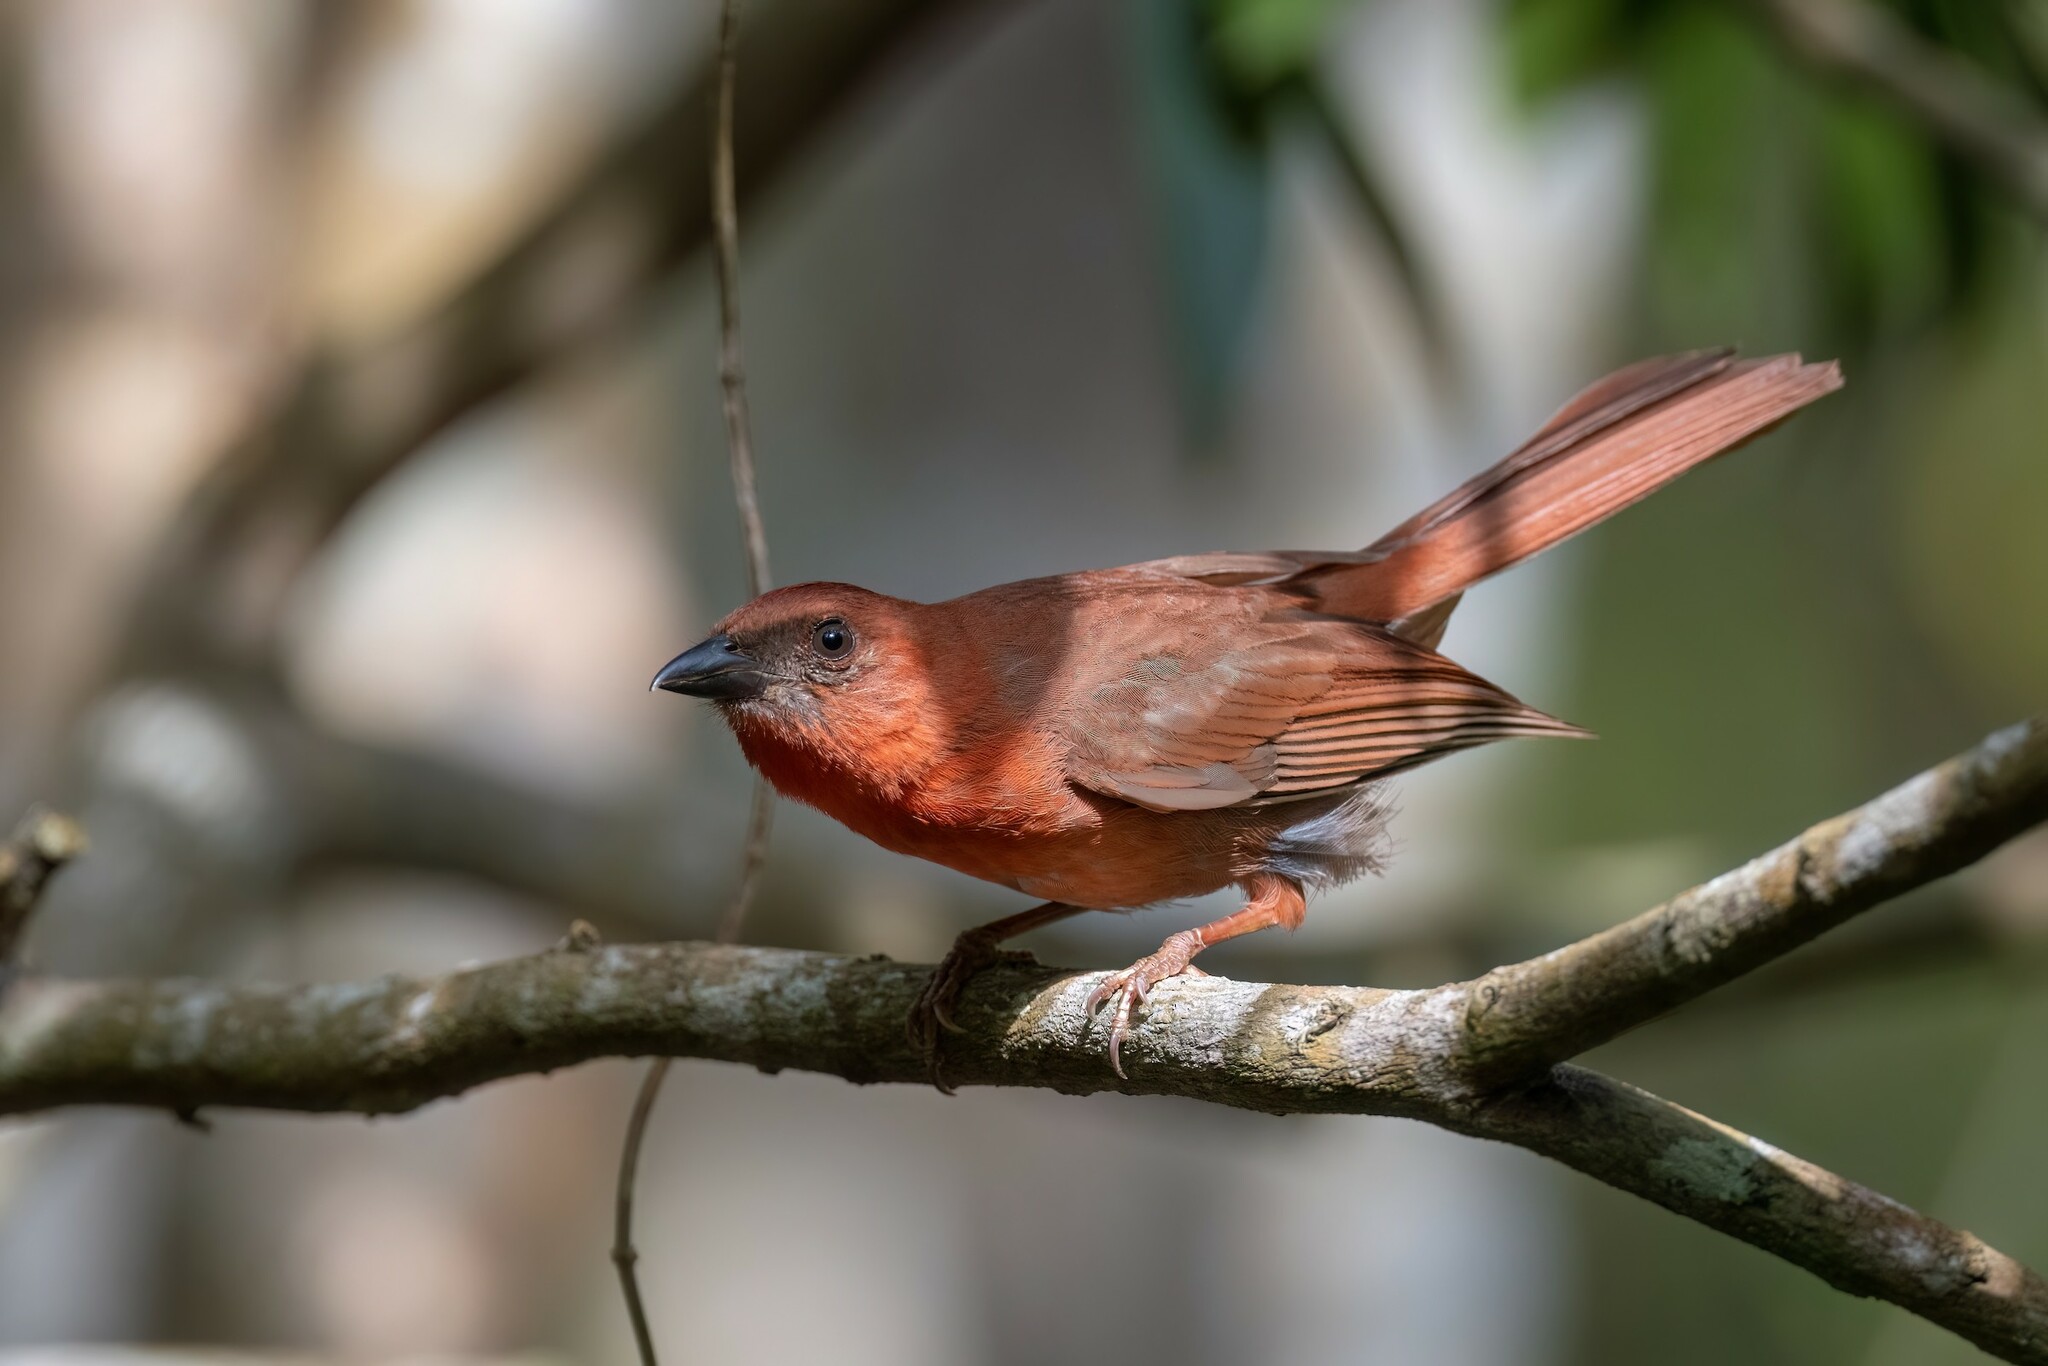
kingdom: Animalia
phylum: Chordata
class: Aves
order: Passeriformes
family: Cardinalidae
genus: Habia
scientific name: Habia fuscicauda
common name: Red-throated ant-tanager
